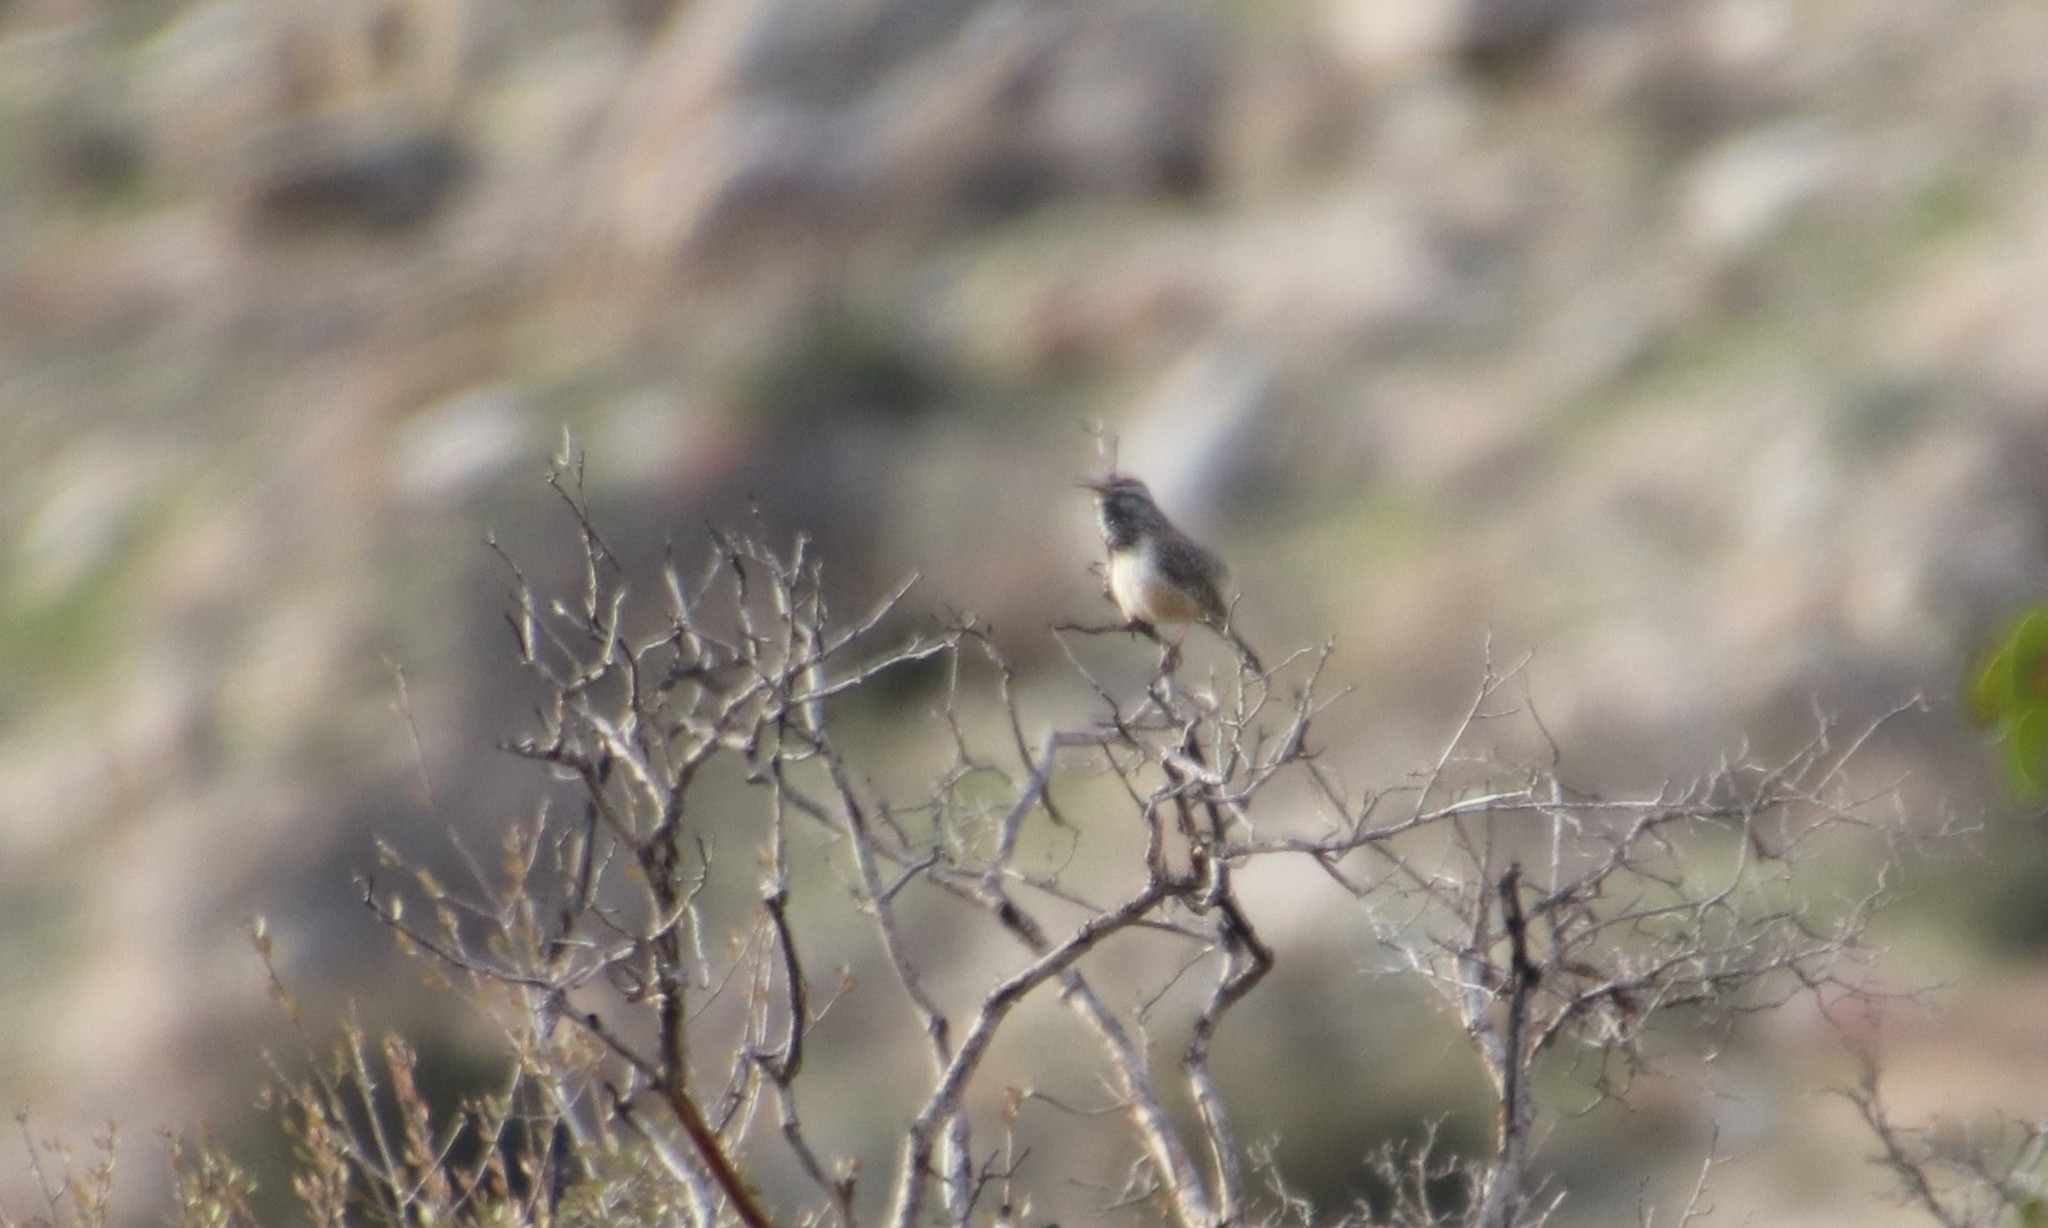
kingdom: Animalia
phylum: Chordata
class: Aves
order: Passeriformes
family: Troglodytidae
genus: Campylorhynchus
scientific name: Campylorhynchus brunneicapillus
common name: Cactus wren
